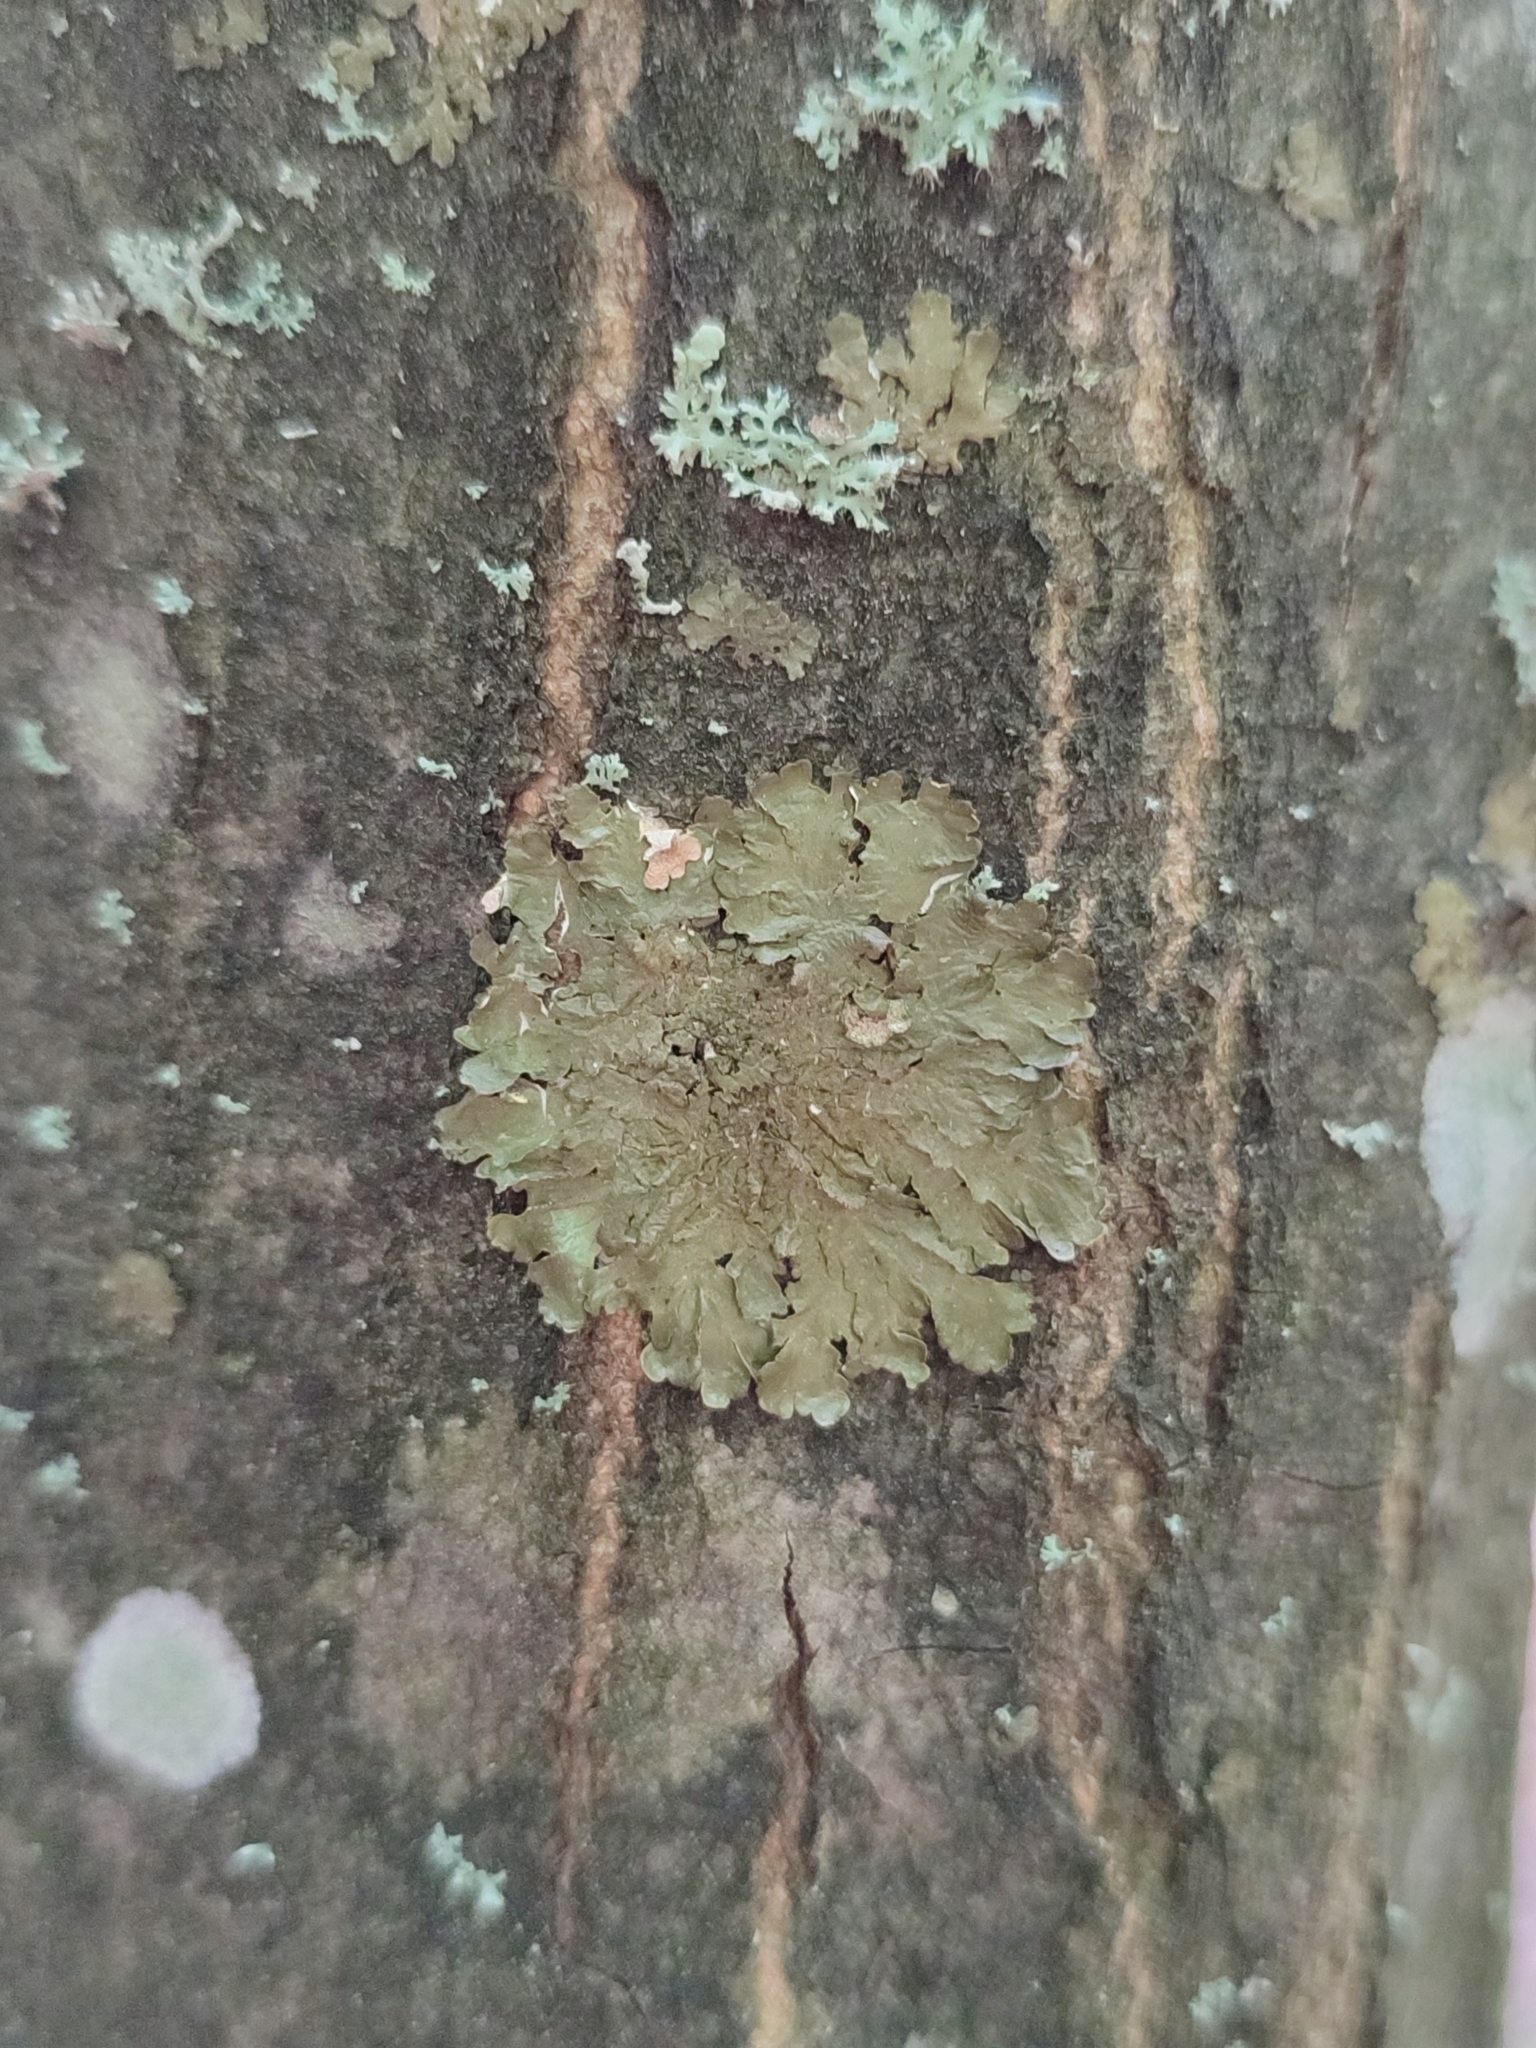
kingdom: Fungi
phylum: Ascomycota
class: Lecanoromycetes
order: Lecanorales
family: Parmeliaceae
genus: Melanelixia
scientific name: Melanelixia glabratula
